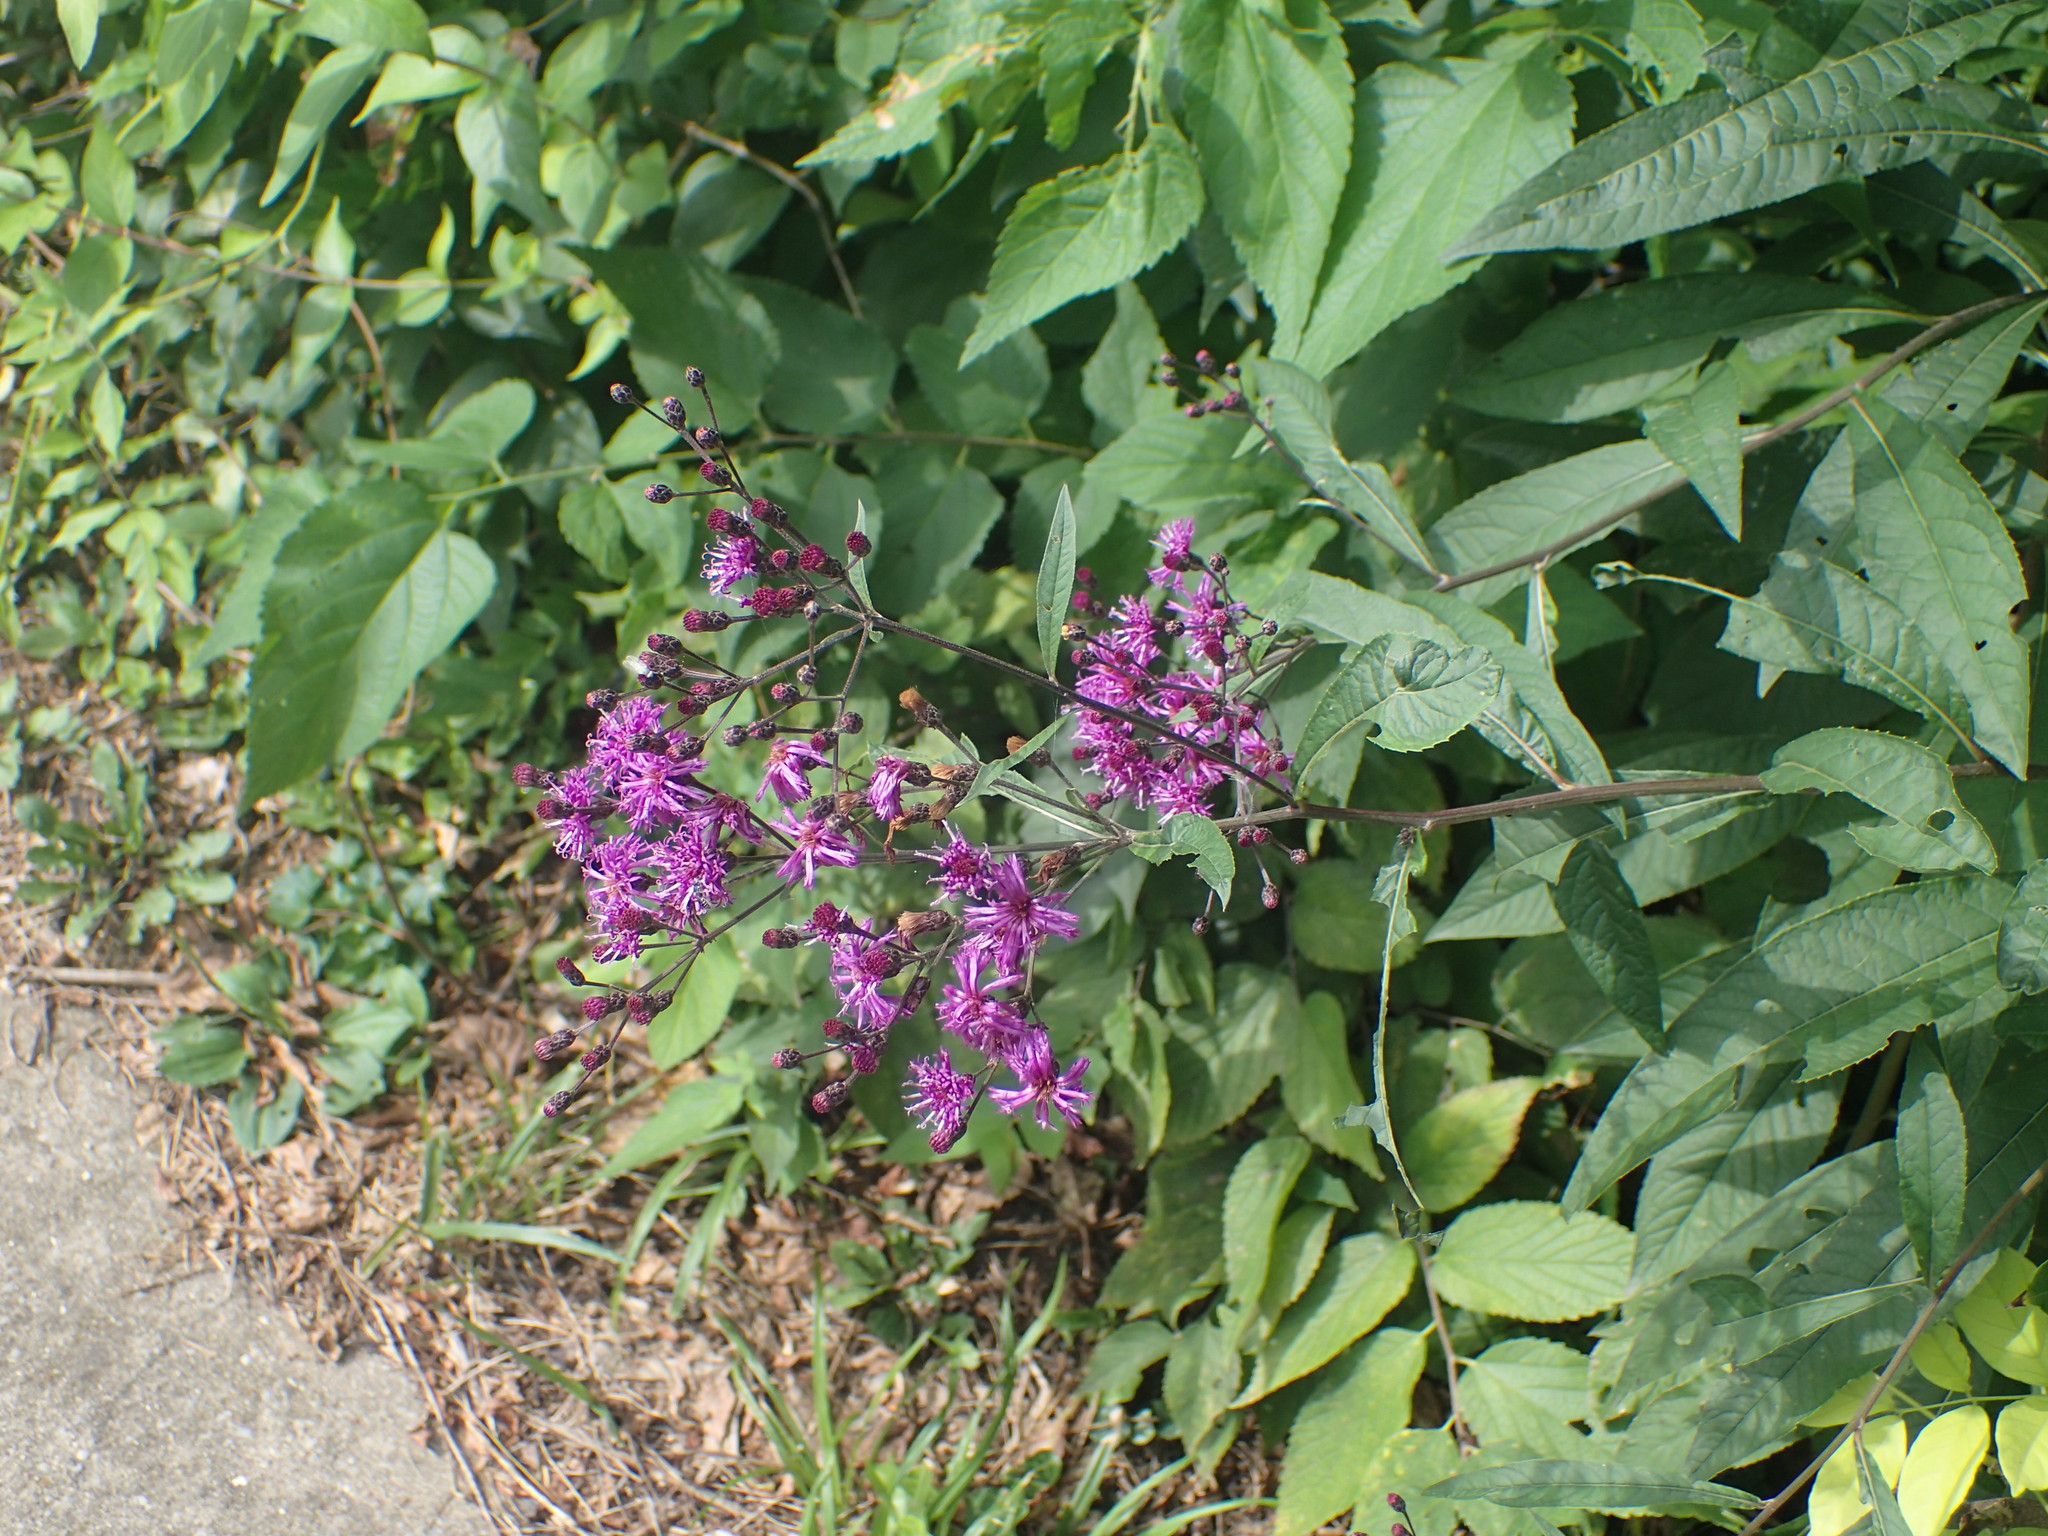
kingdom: Plantae
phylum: Tracheophyta
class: Magnoliopsida
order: Asterales
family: Asteraceae
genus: Vernonia
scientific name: Vernonia gigantea
